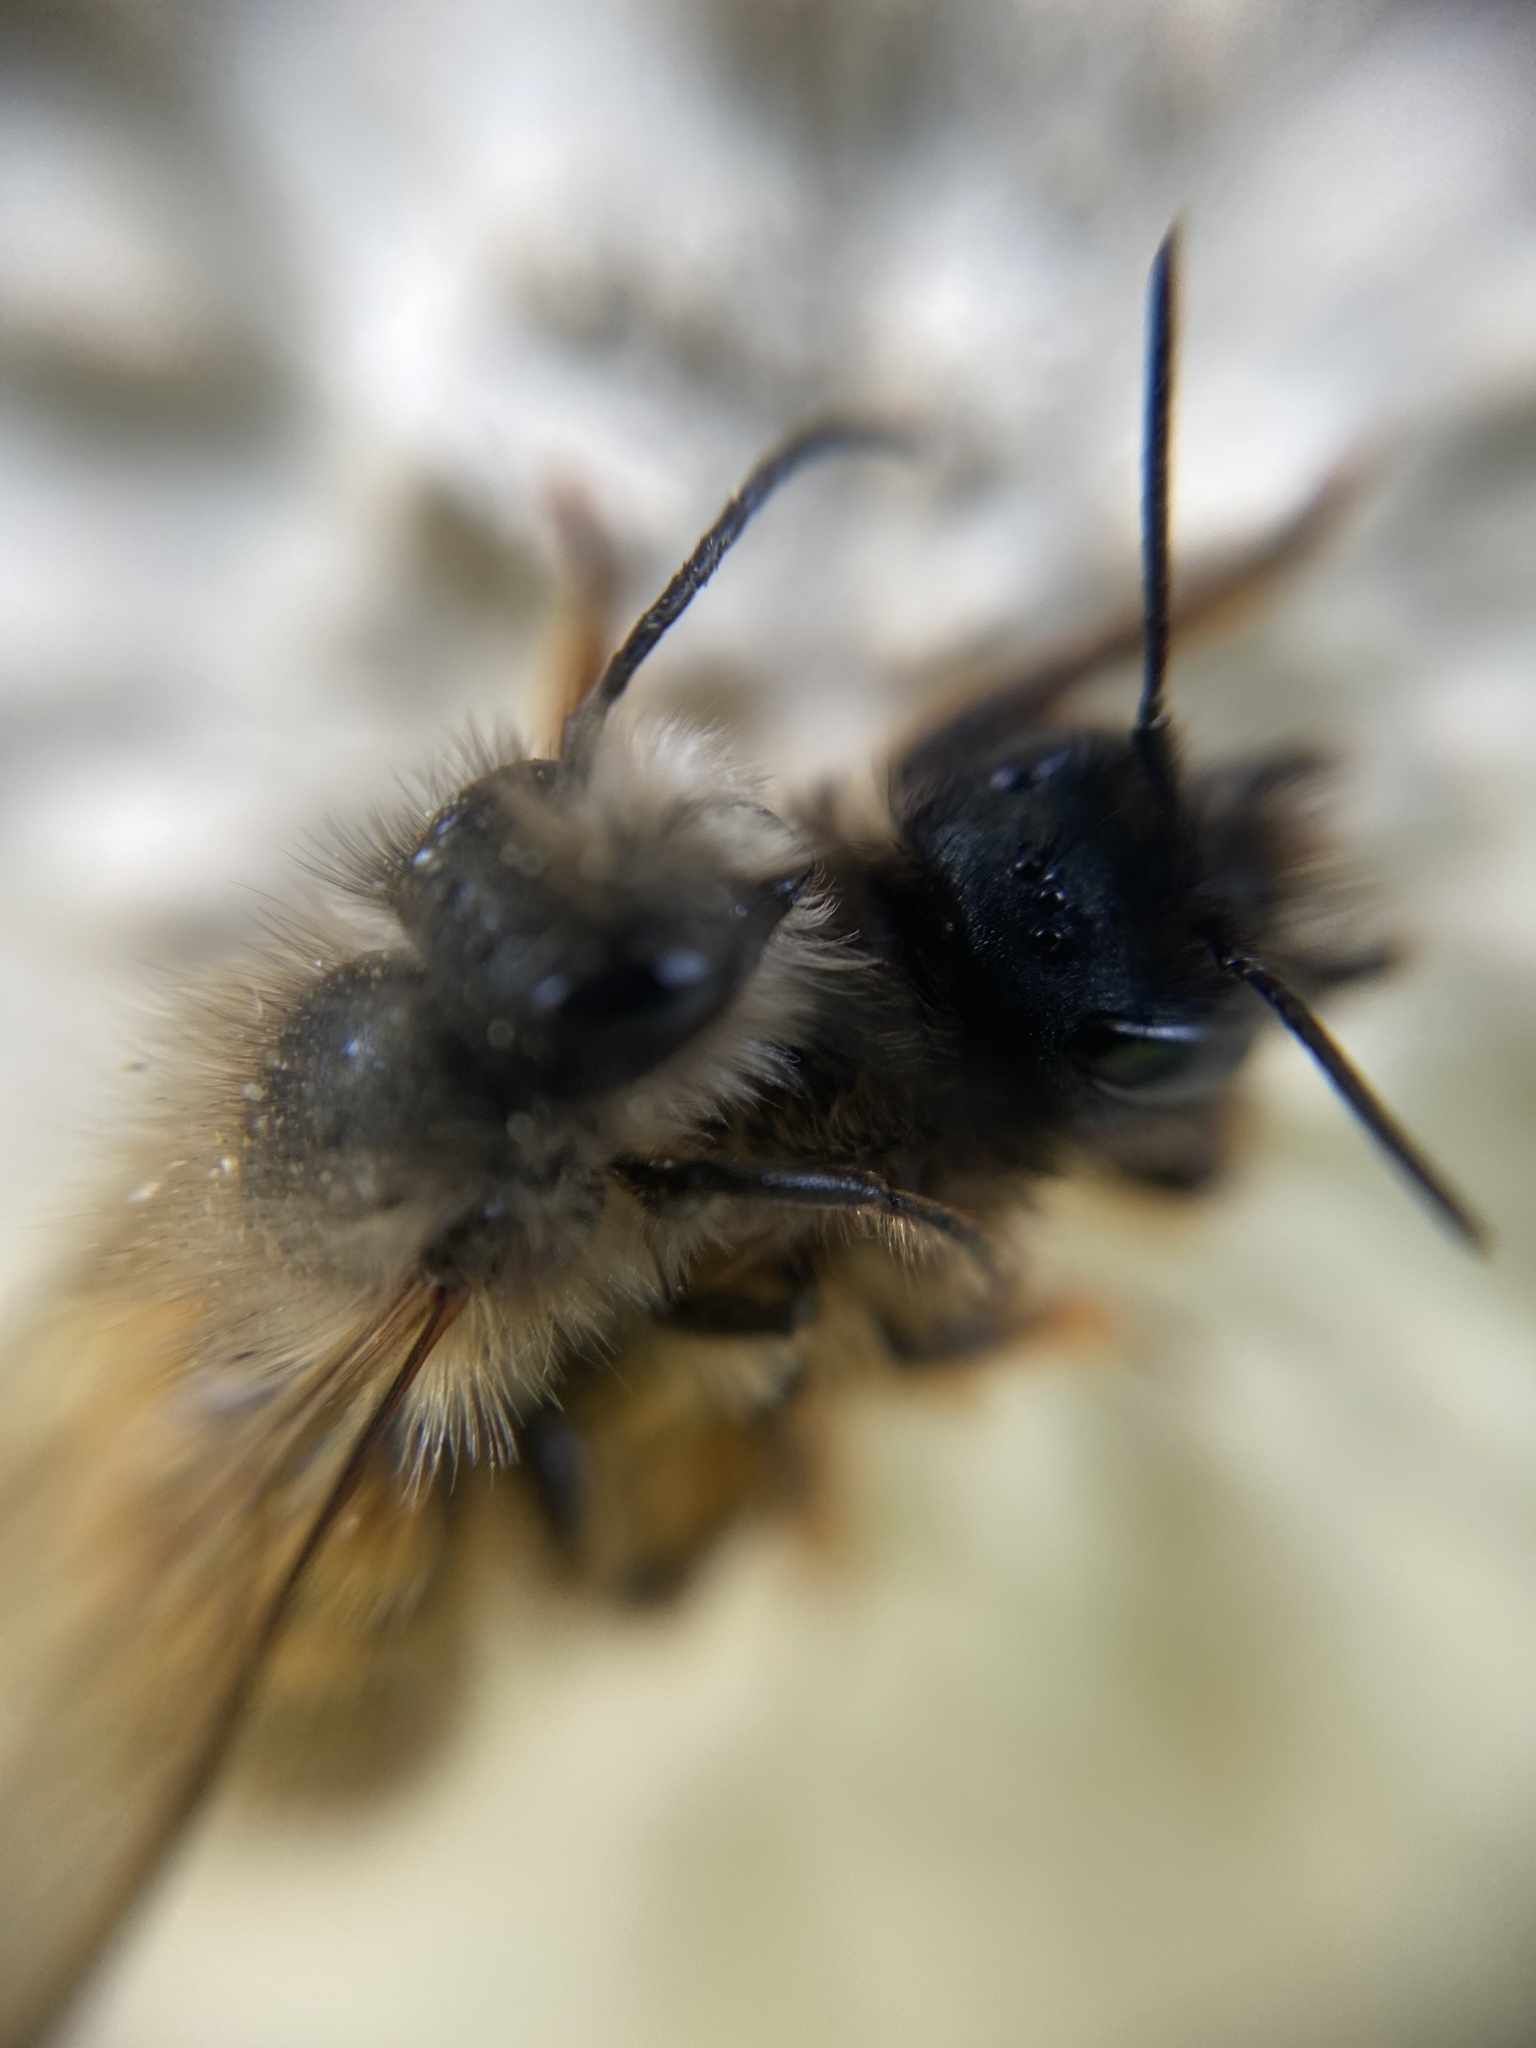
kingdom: Animalia
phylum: Arthropoda
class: Insecta
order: Hymenoptera
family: Megachilidae
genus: Osmia
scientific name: Osmia bicornis
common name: Red mason bee
